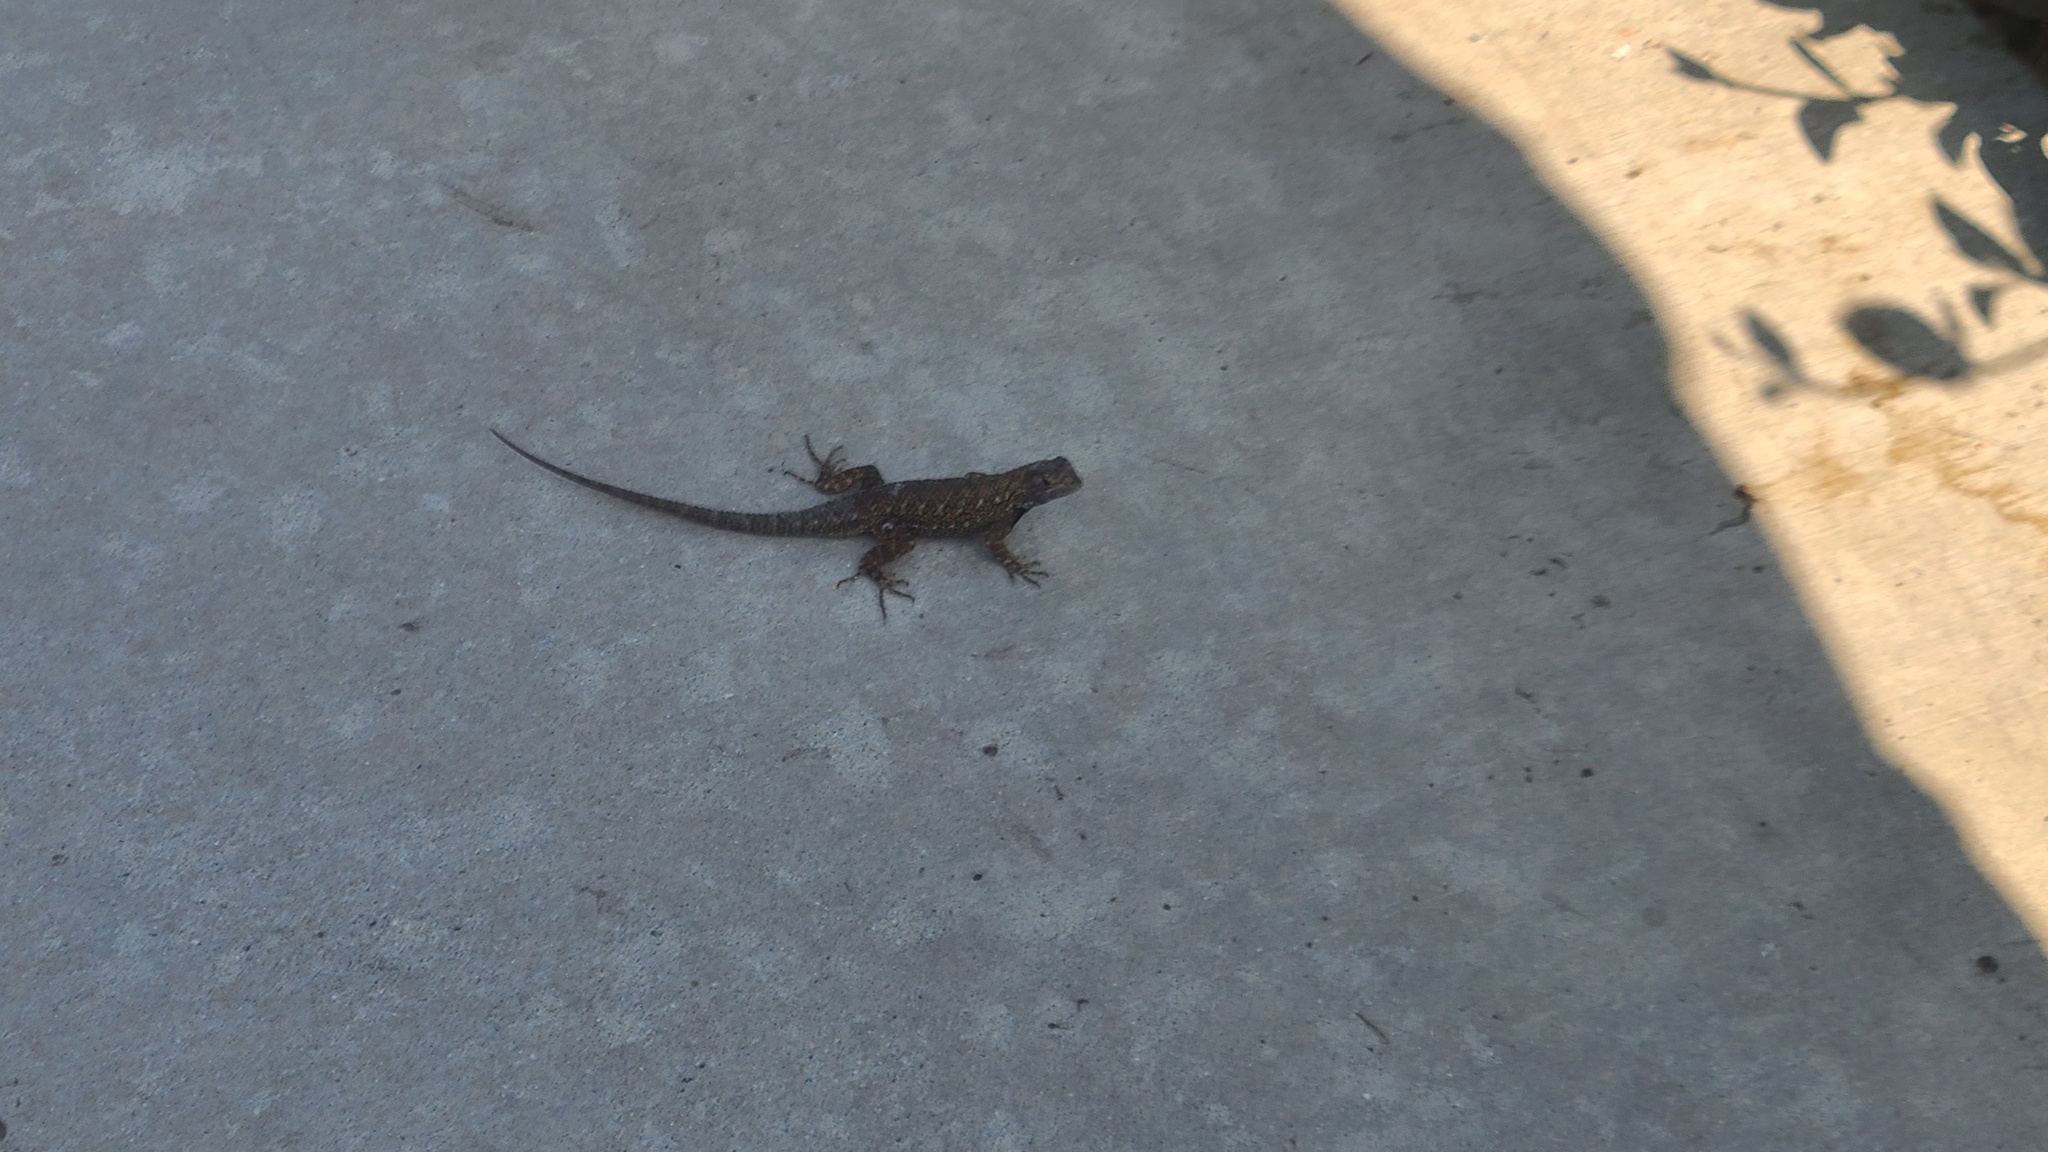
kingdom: Animalia
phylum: Chordata
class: Squamata
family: Phrynosomatidae
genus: Sceloporus
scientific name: Sceloporus occidentalis
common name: Western fence lizard
